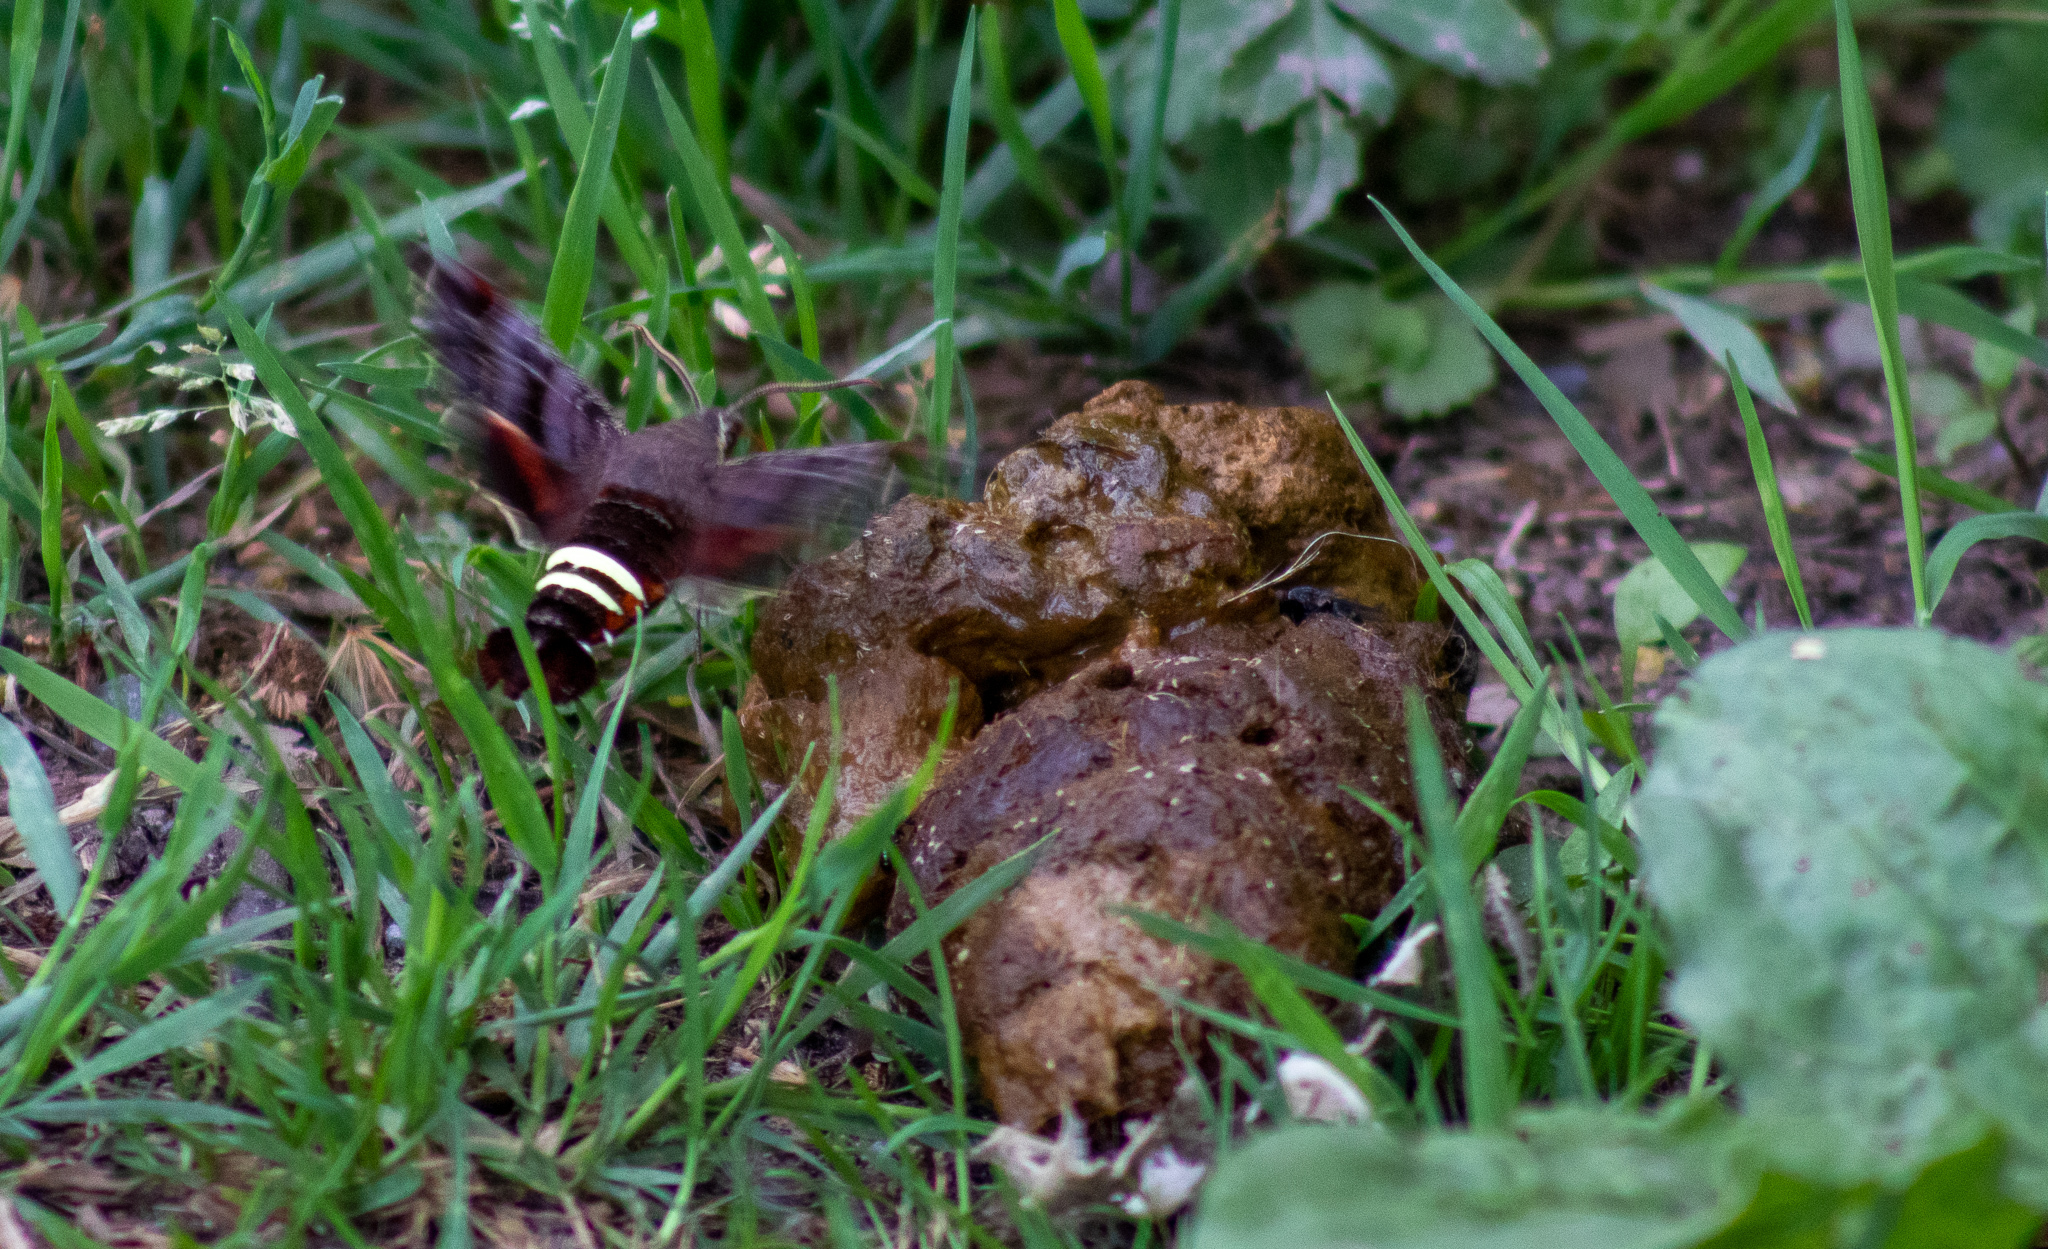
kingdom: Animalia
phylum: Arthropoda
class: Insecta
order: Lepidoptera
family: Sphingidae
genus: Amphion
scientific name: Amphion floridensis
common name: Nessus sphinx
